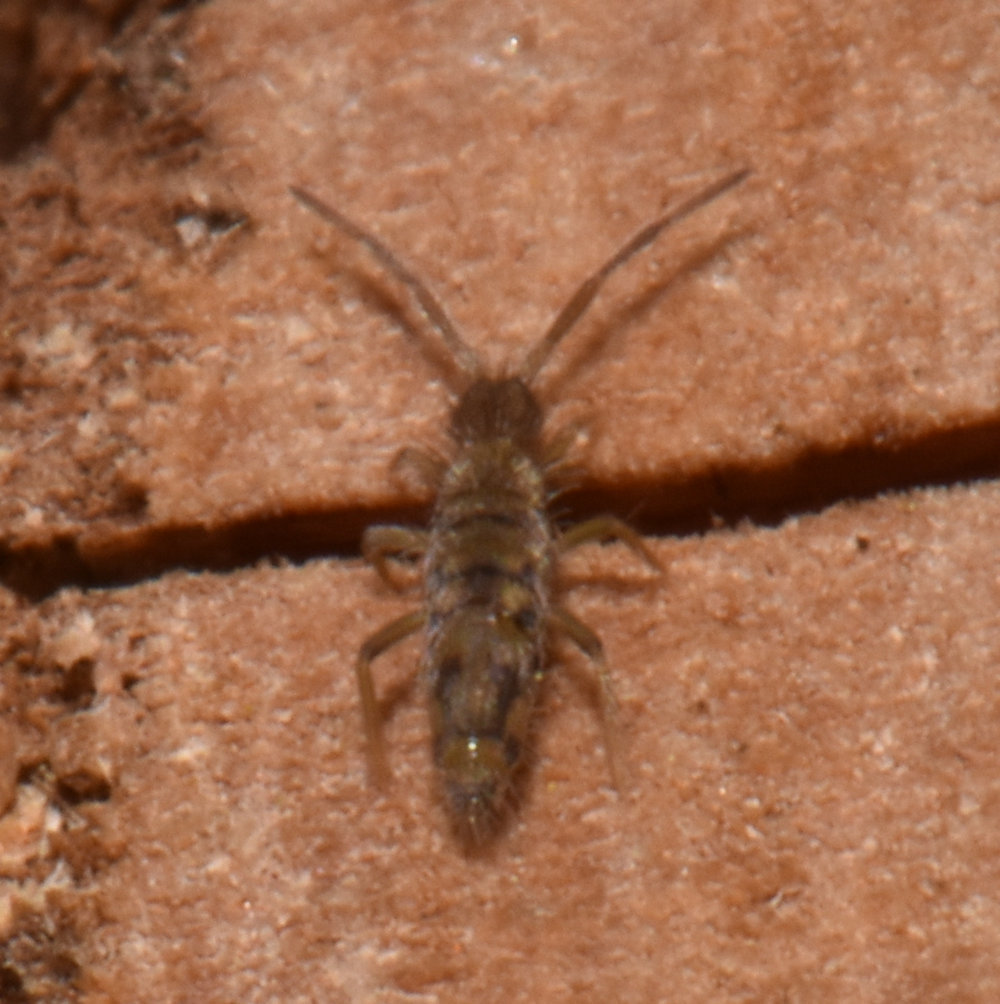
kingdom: Animalia
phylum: Arthropoda
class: Collembola
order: Entomobryomorpha
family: Entomobryidae
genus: Entomobrya
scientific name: Entomobrya nivalis
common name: Cosmopolitan springtail
